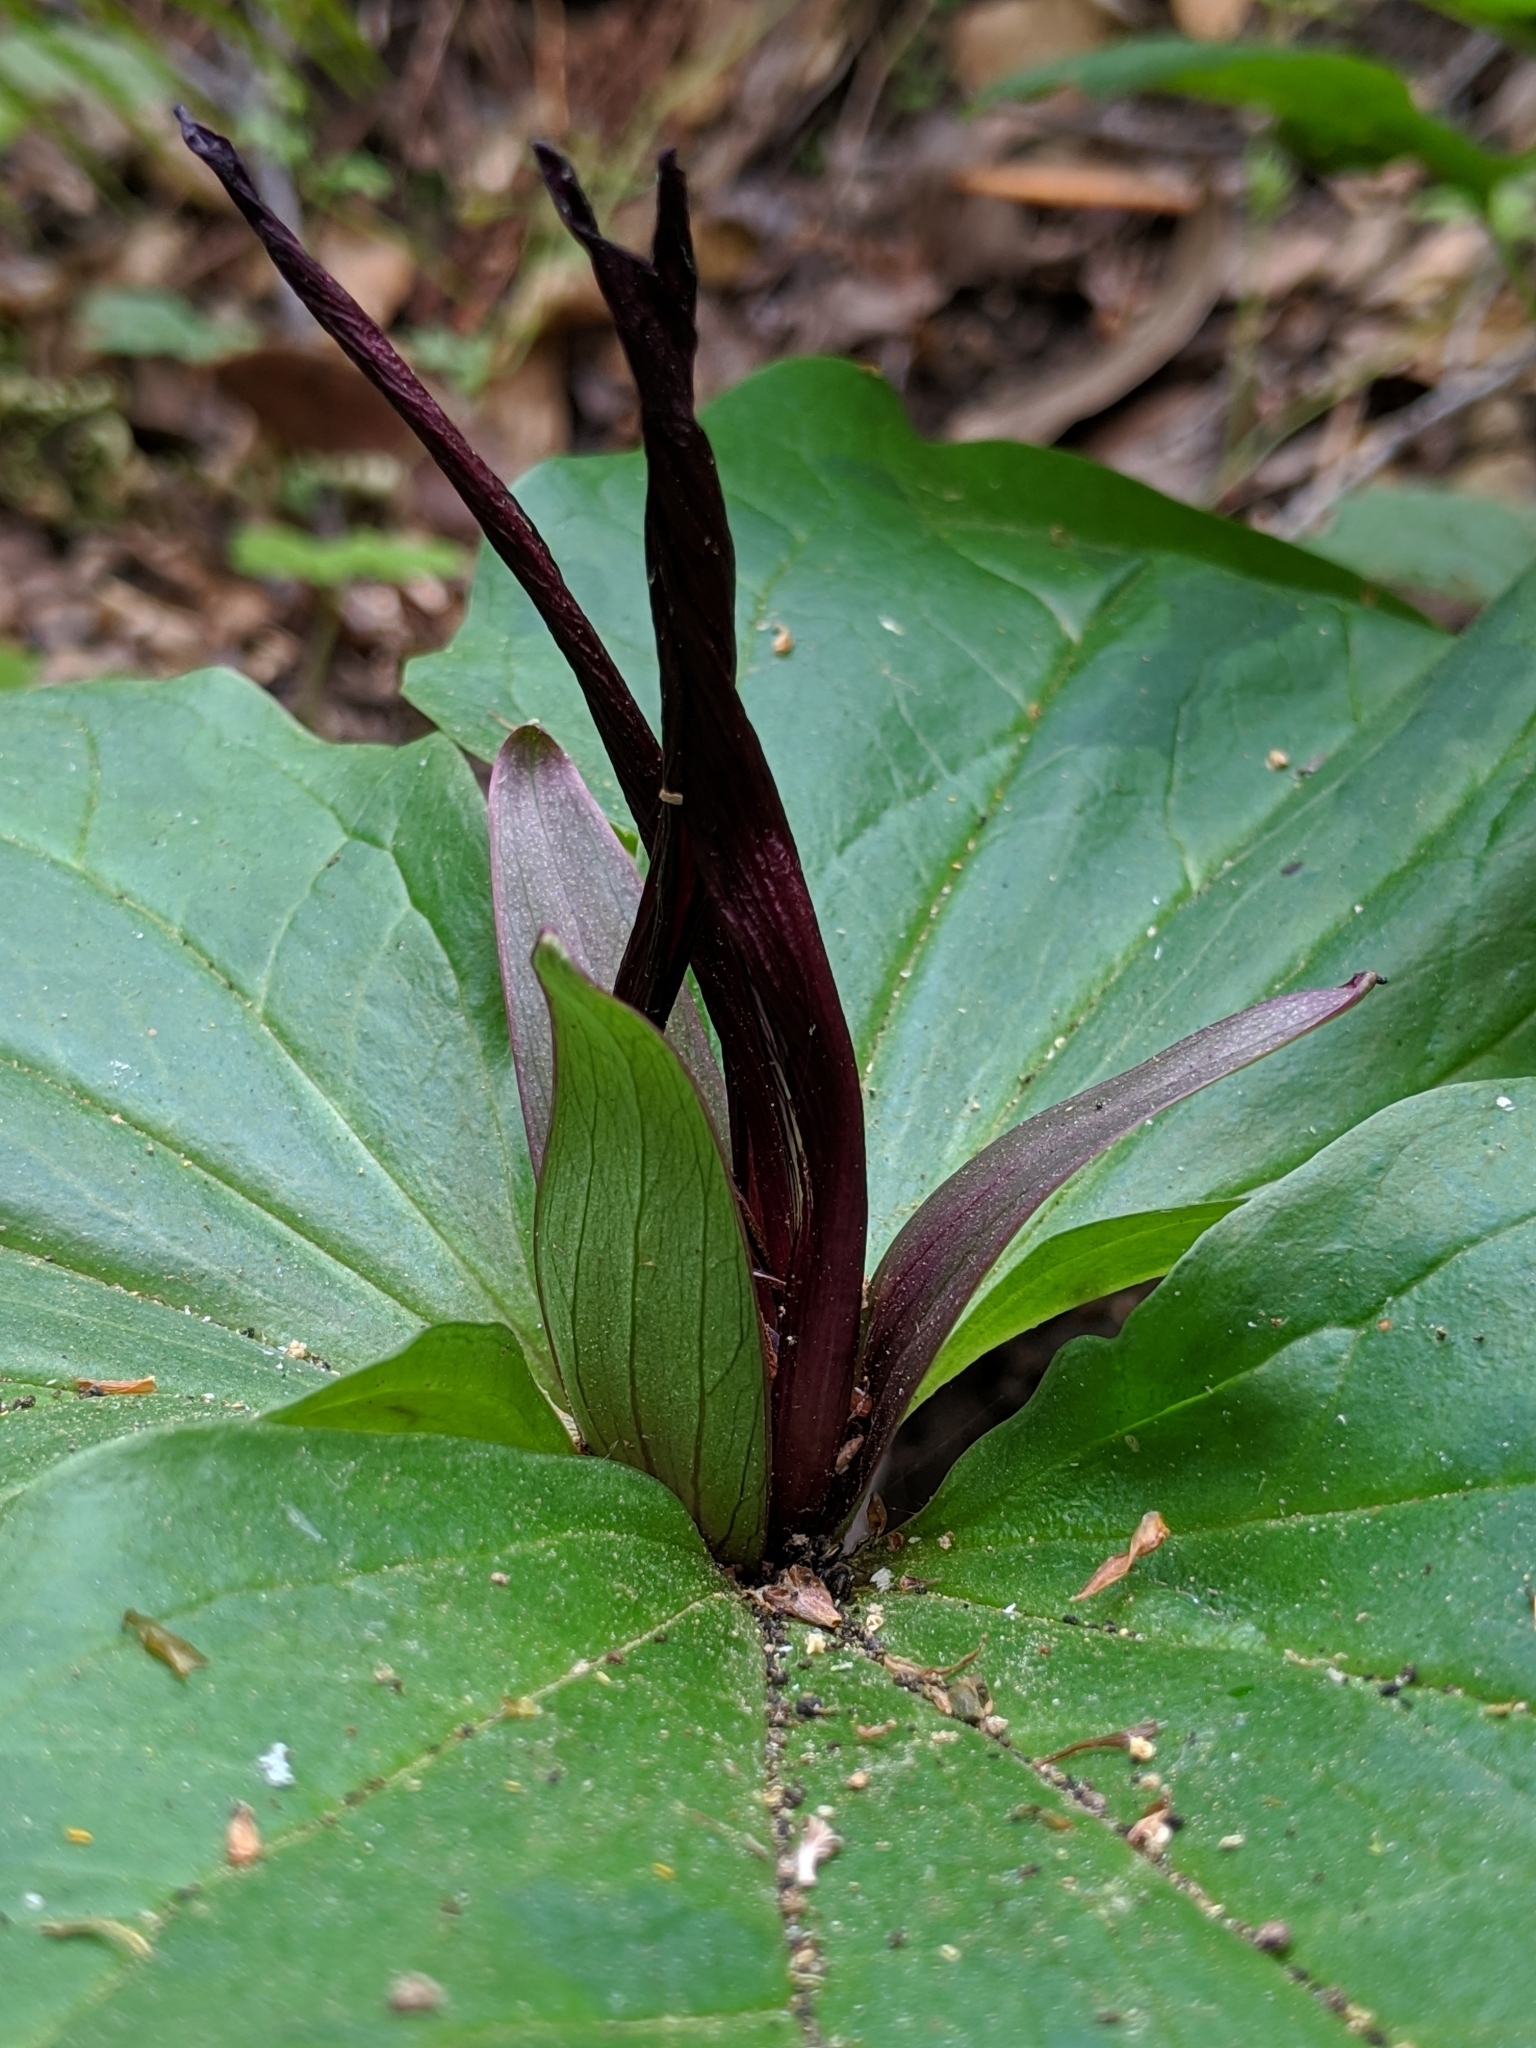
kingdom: Plantae
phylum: Tracheophyta
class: Liliopsida
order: Liliales
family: Melanthiaceae
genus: Trillium
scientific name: Trillium chloropetalum
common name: Giant trillium
